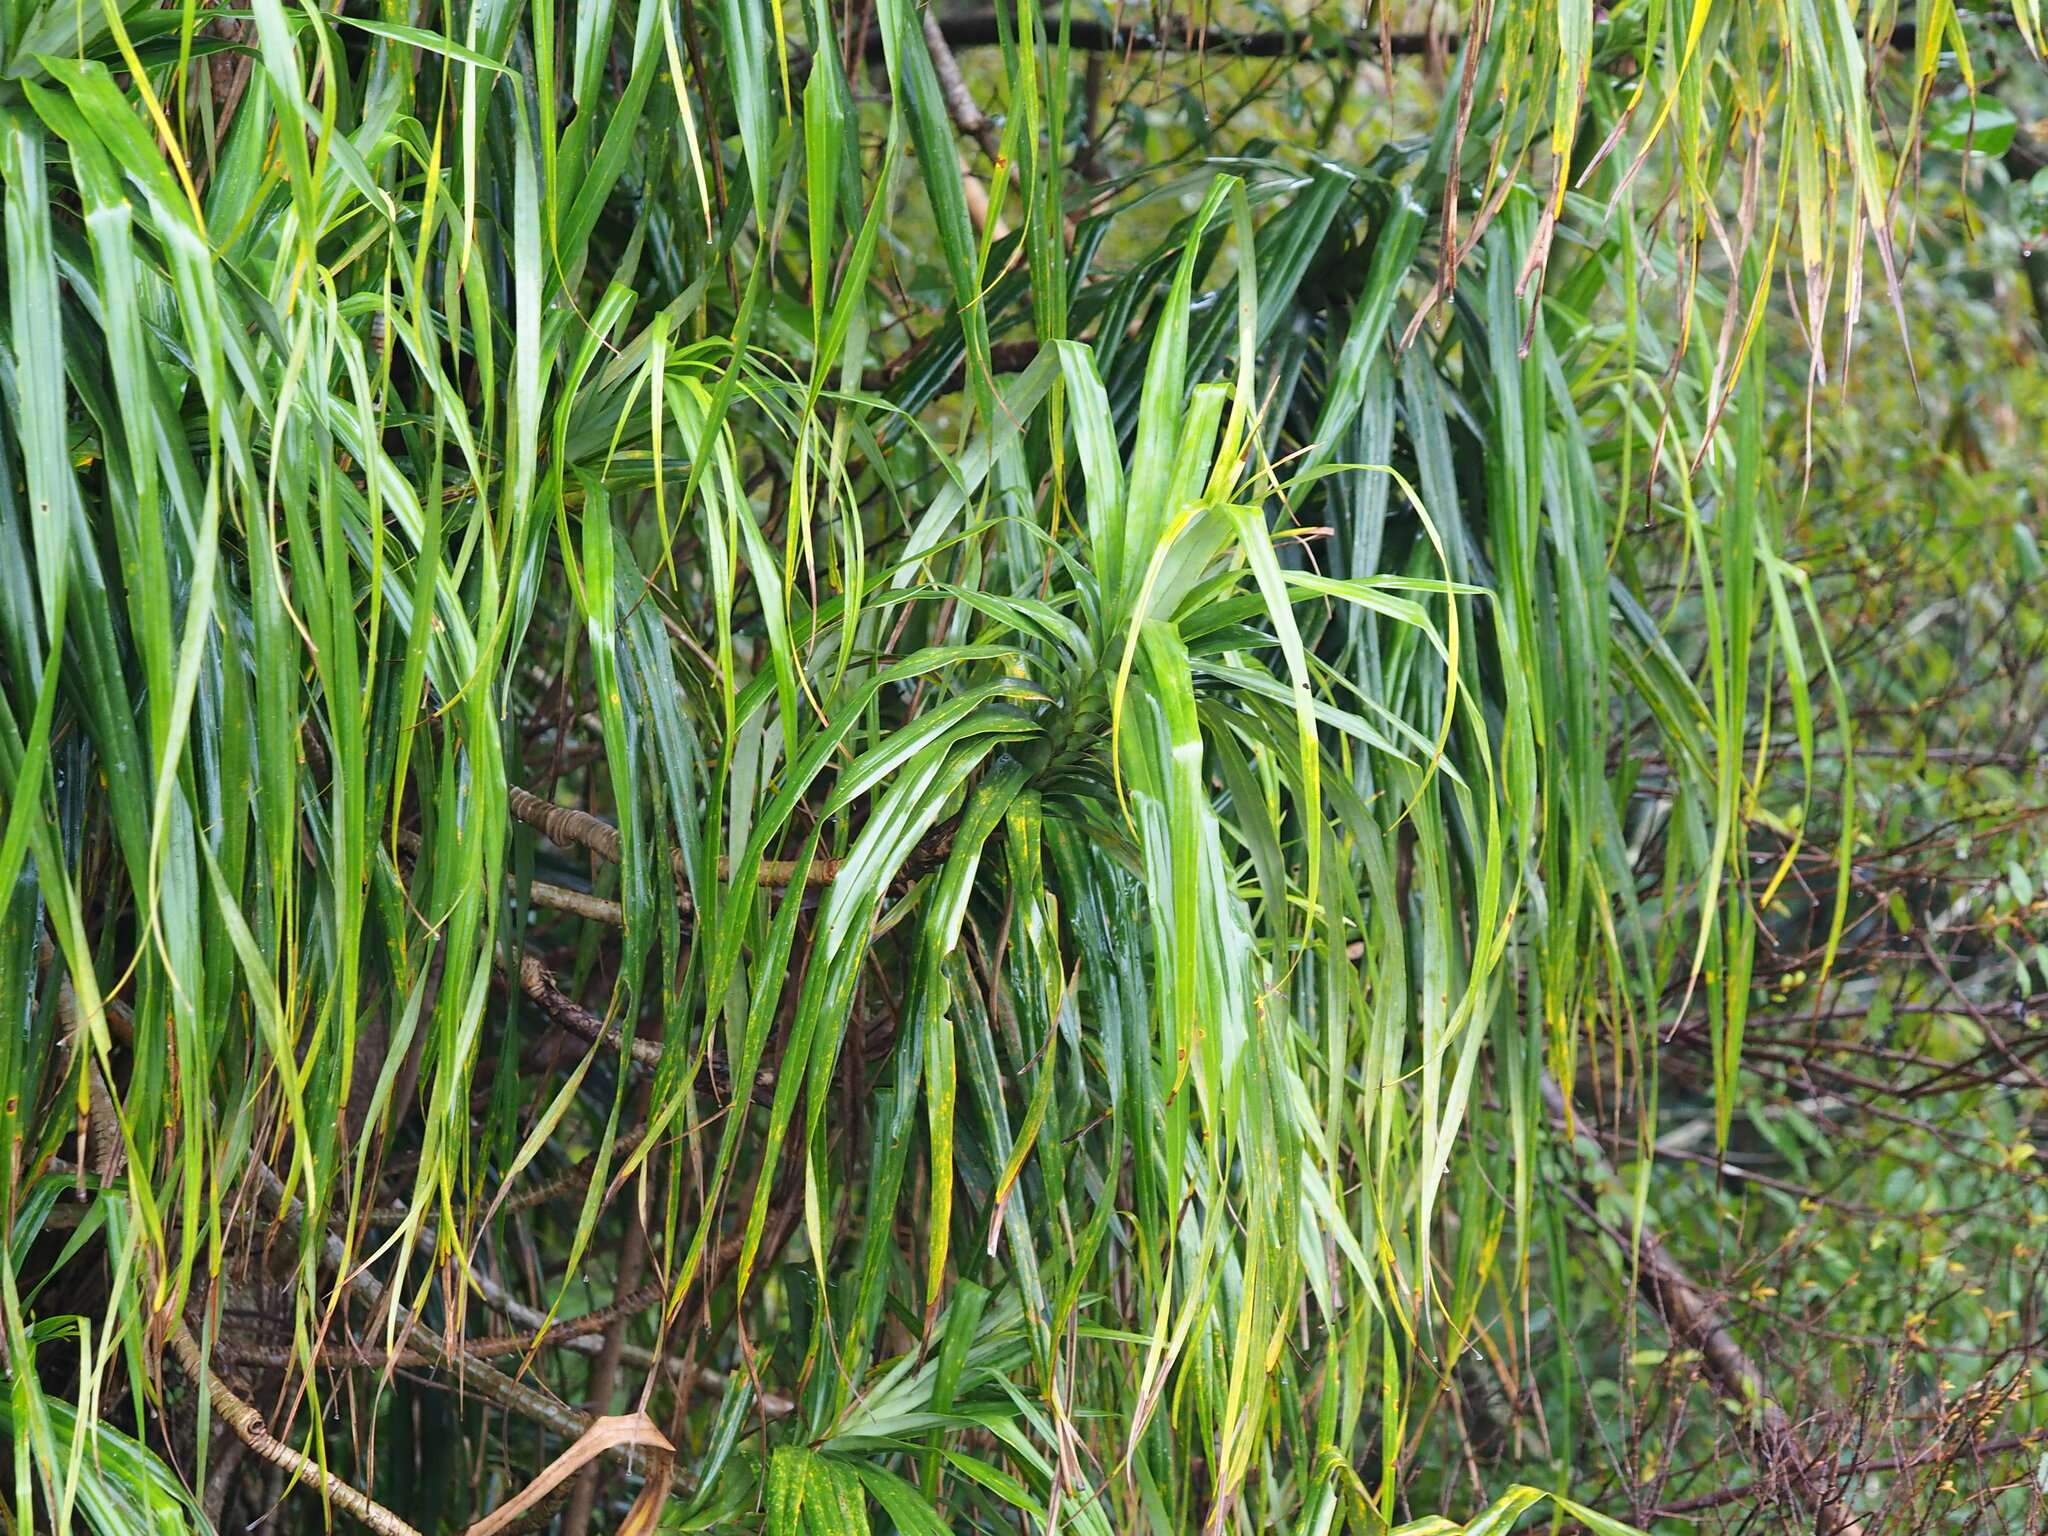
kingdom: Plantae
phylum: Tracheophyta
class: Liliopsida
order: Pandanales
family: Pandanaceae
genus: Freycinetia
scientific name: Freycinetia formosana
